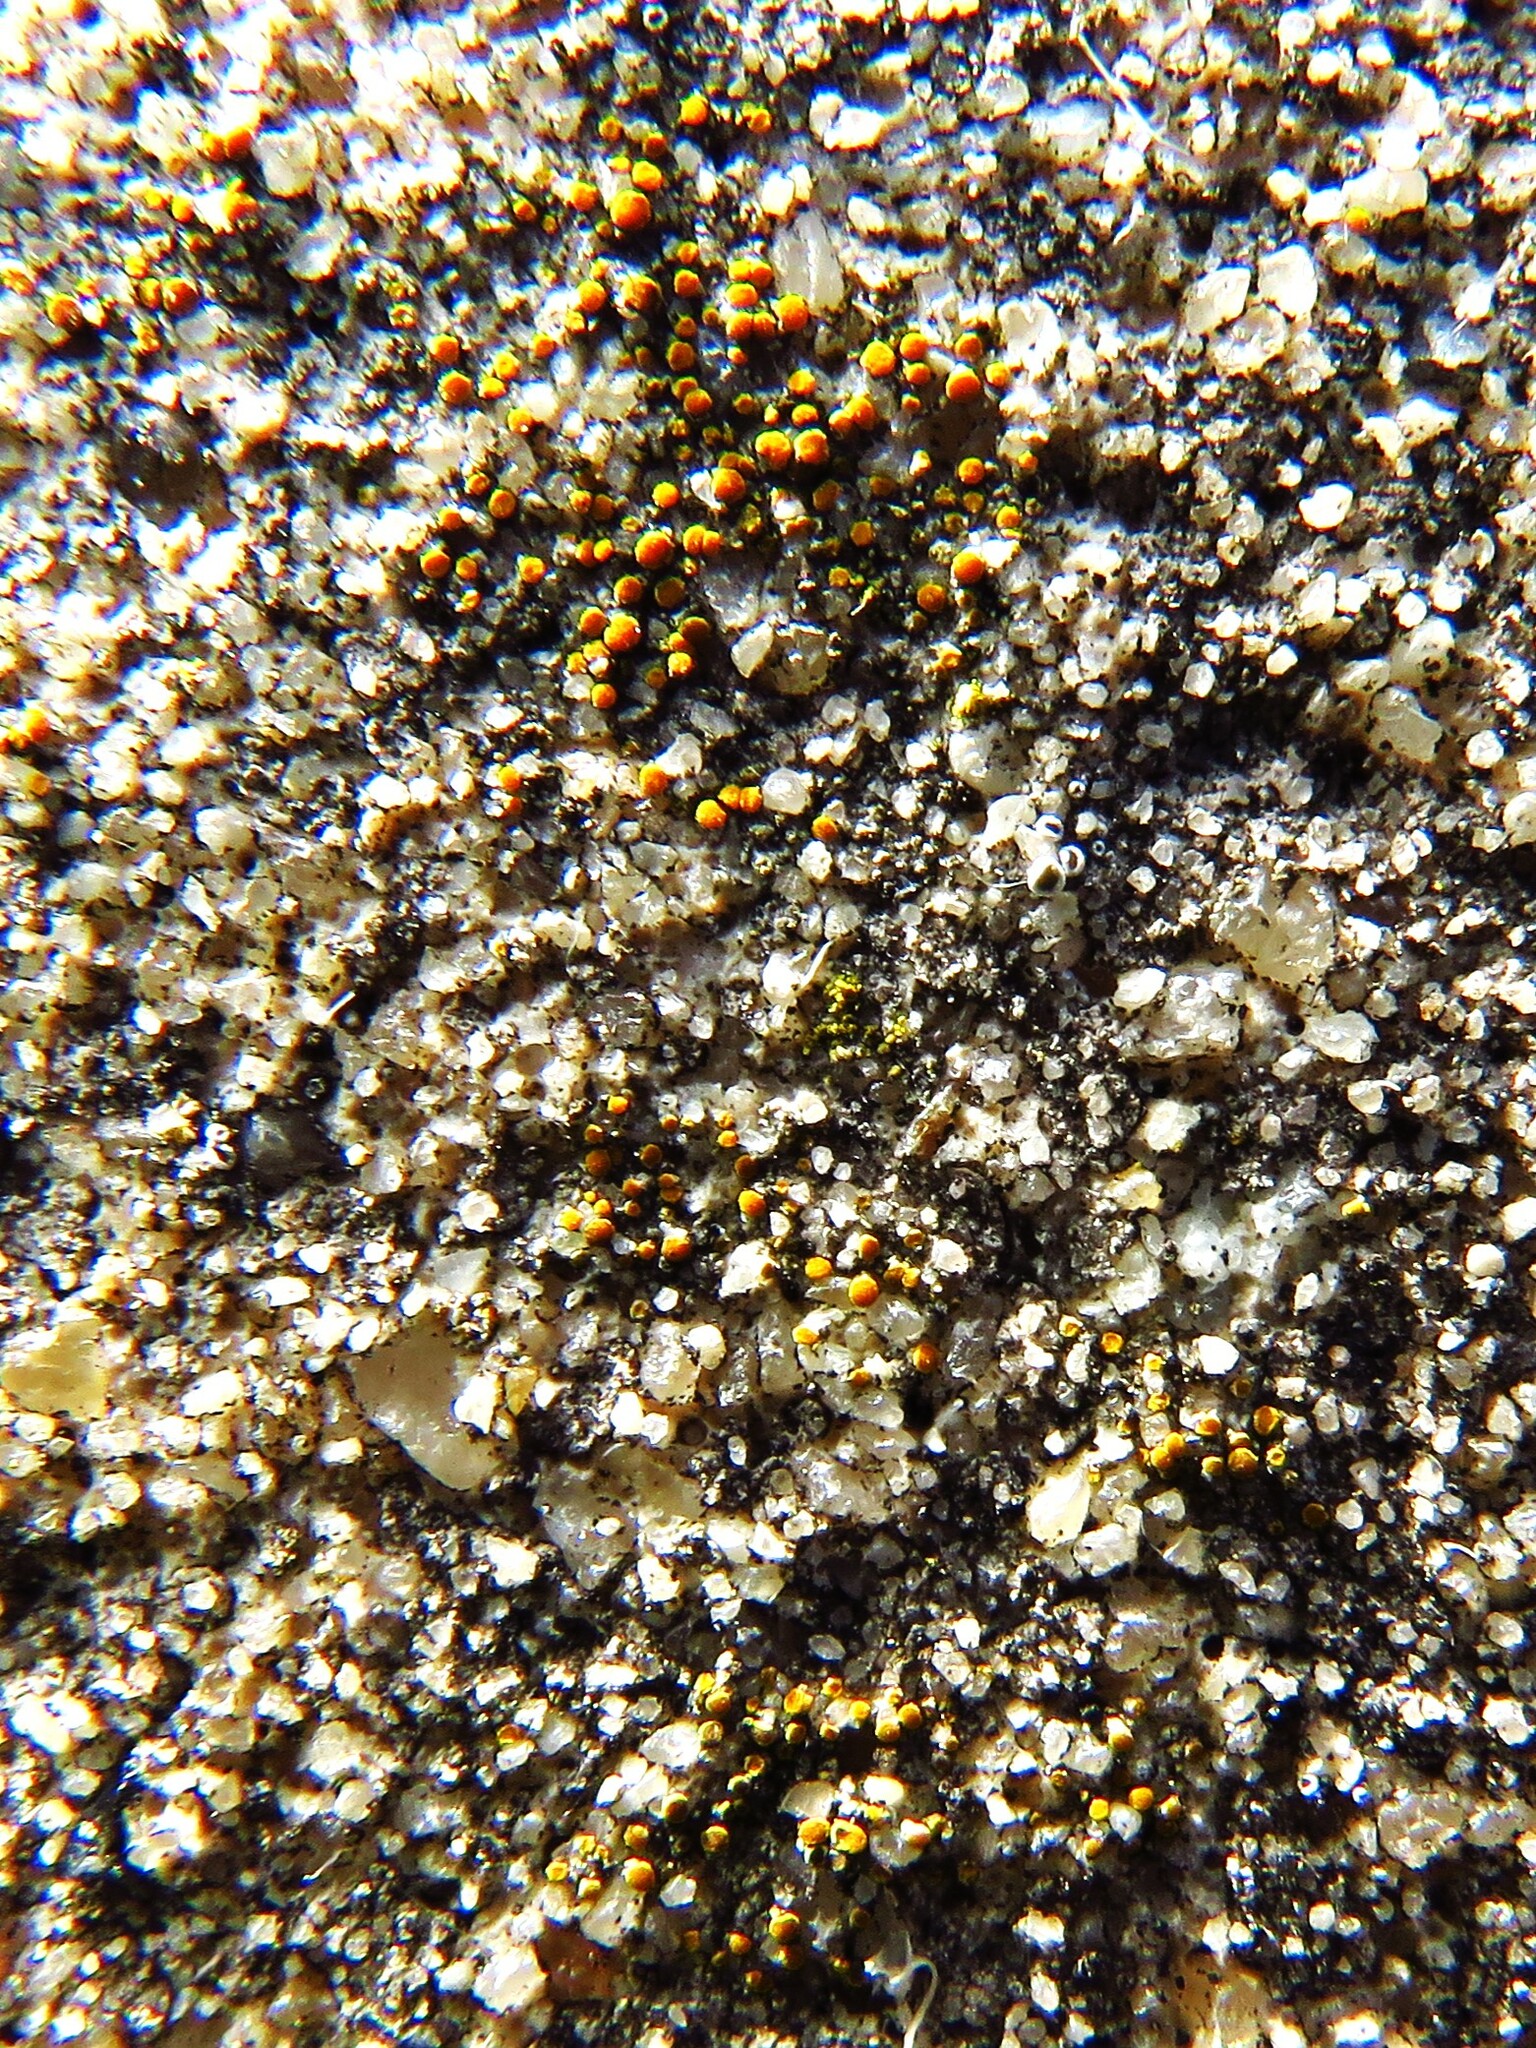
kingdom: Fungi
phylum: Ascomycota
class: Lecanoromycetes
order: Teloschistales
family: Teloschistaceae
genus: Xanthocarpia
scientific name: Xanthocarpia feracissima
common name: Sidewalk firedot
